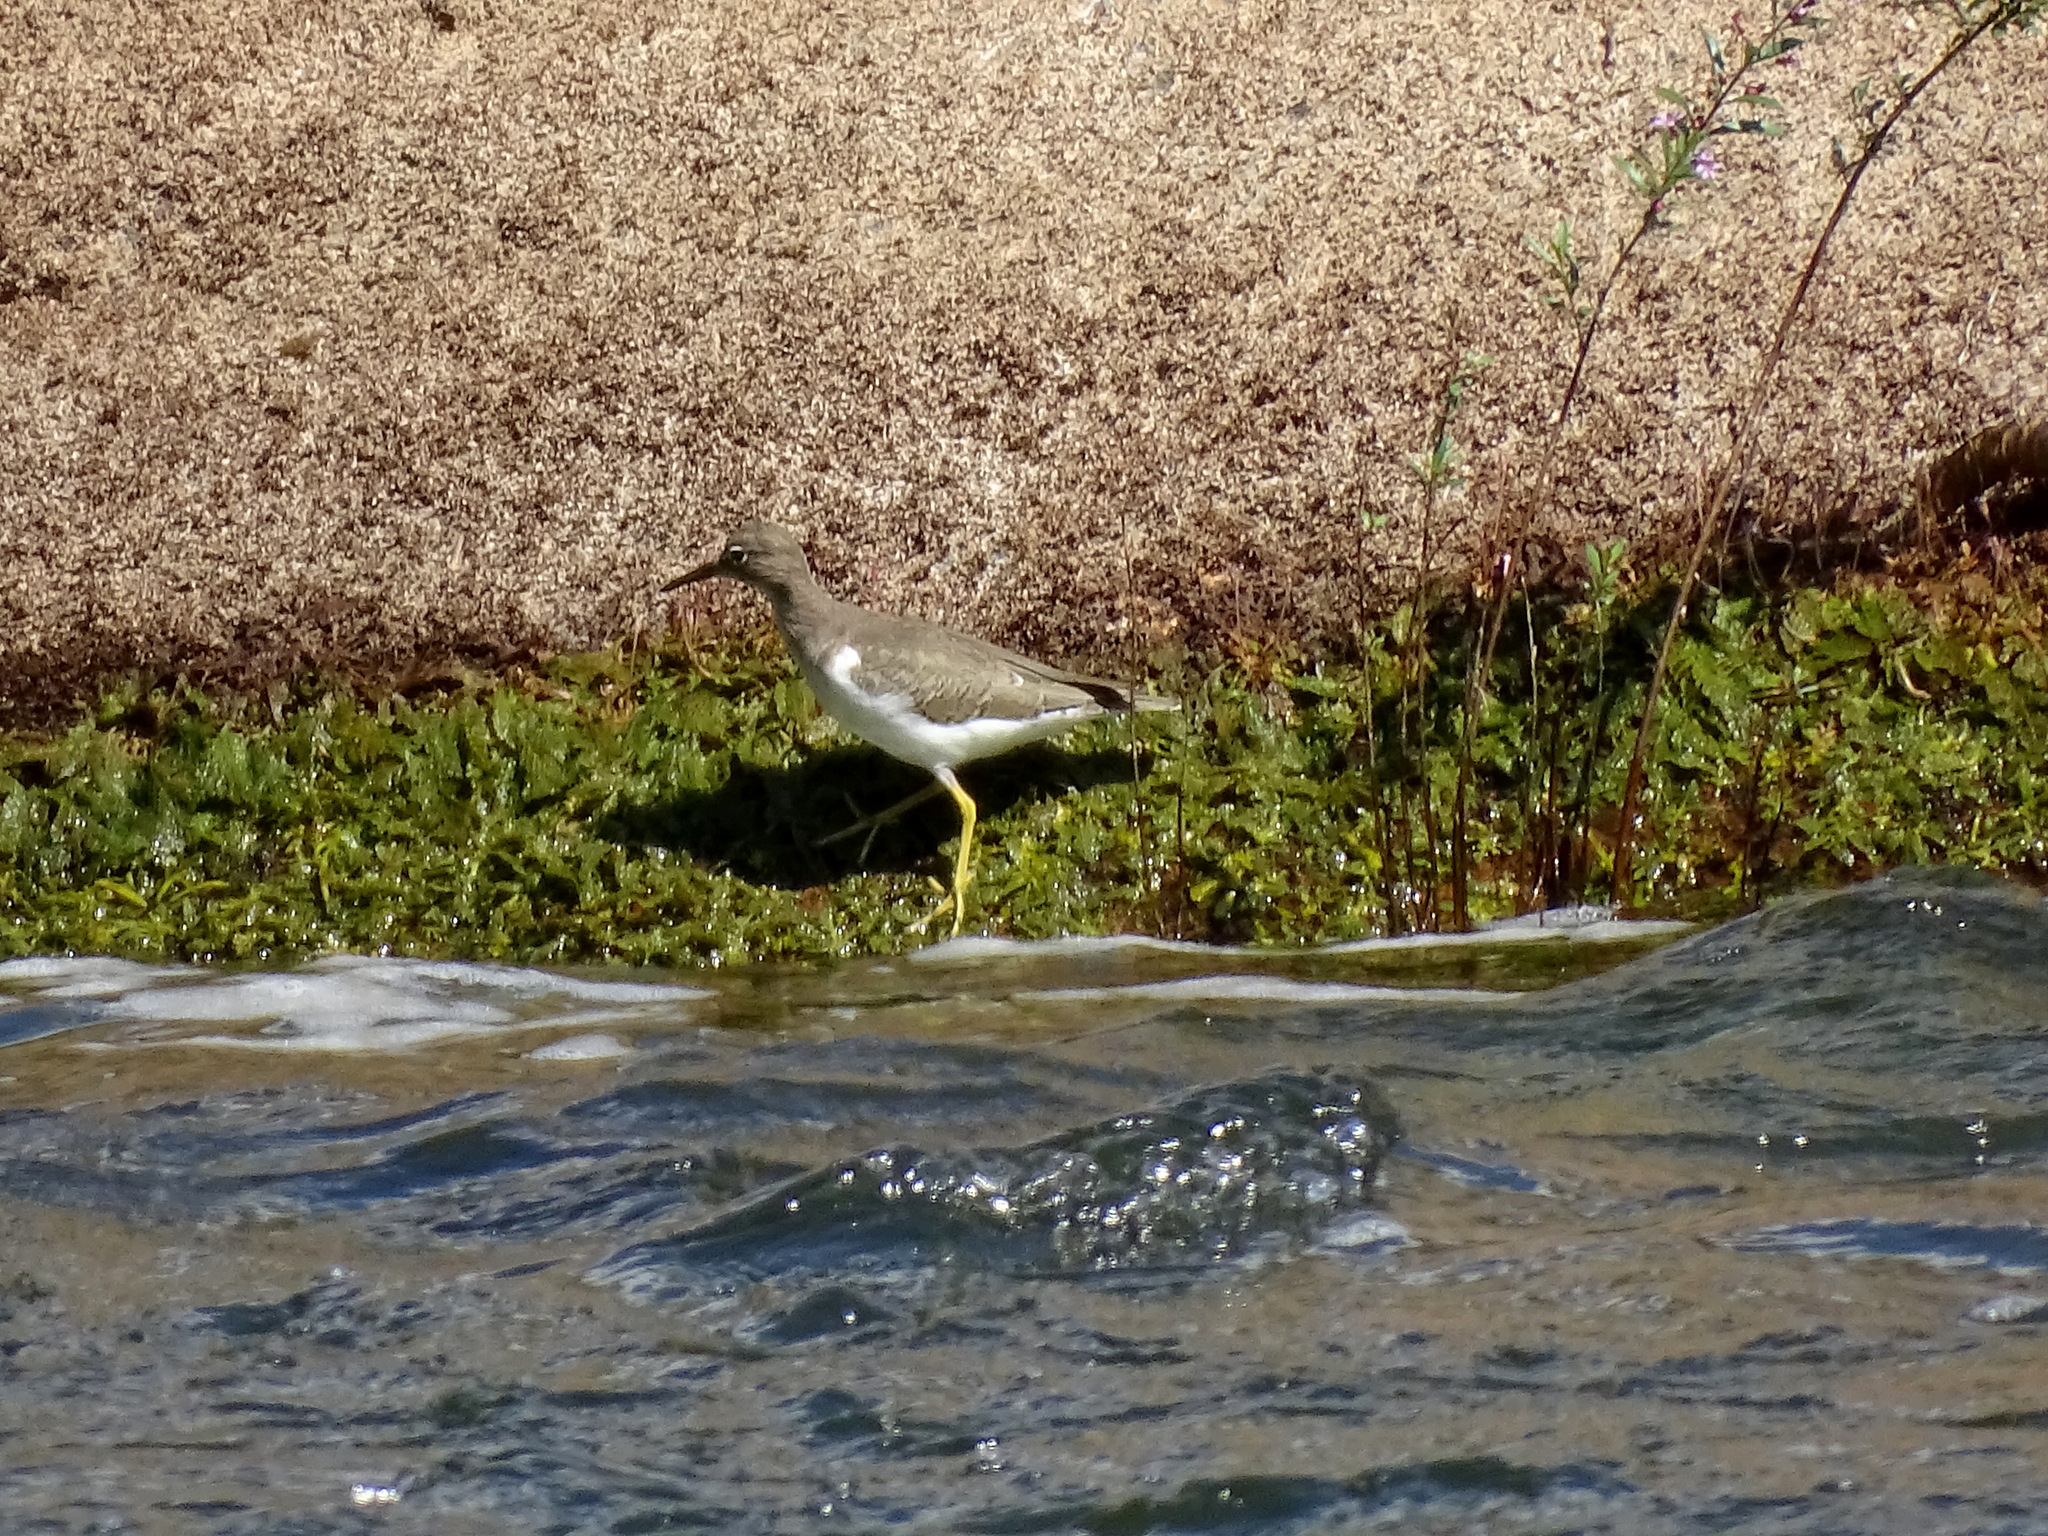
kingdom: Animalia
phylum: Chordata
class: Aves
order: Charadriiformes
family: Scolopacidae
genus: Actitis
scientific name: Actitis macularius
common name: Spotted sandpiper
